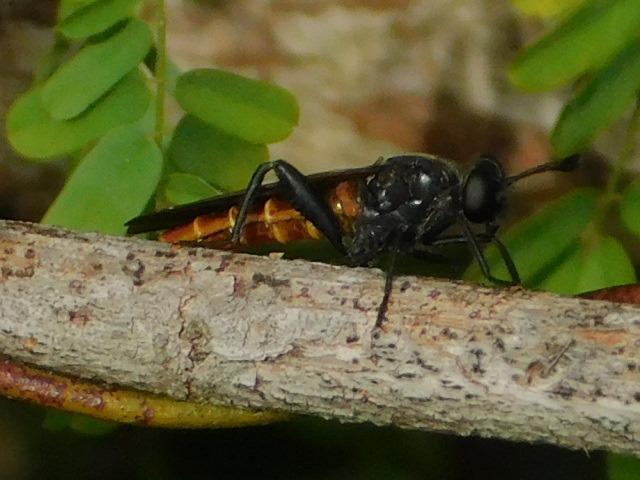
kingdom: Animalia
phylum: Arthropoda
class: Insecta
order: Diptera
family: Mydidae
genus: Mydas
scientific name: Mydas maculiventris
